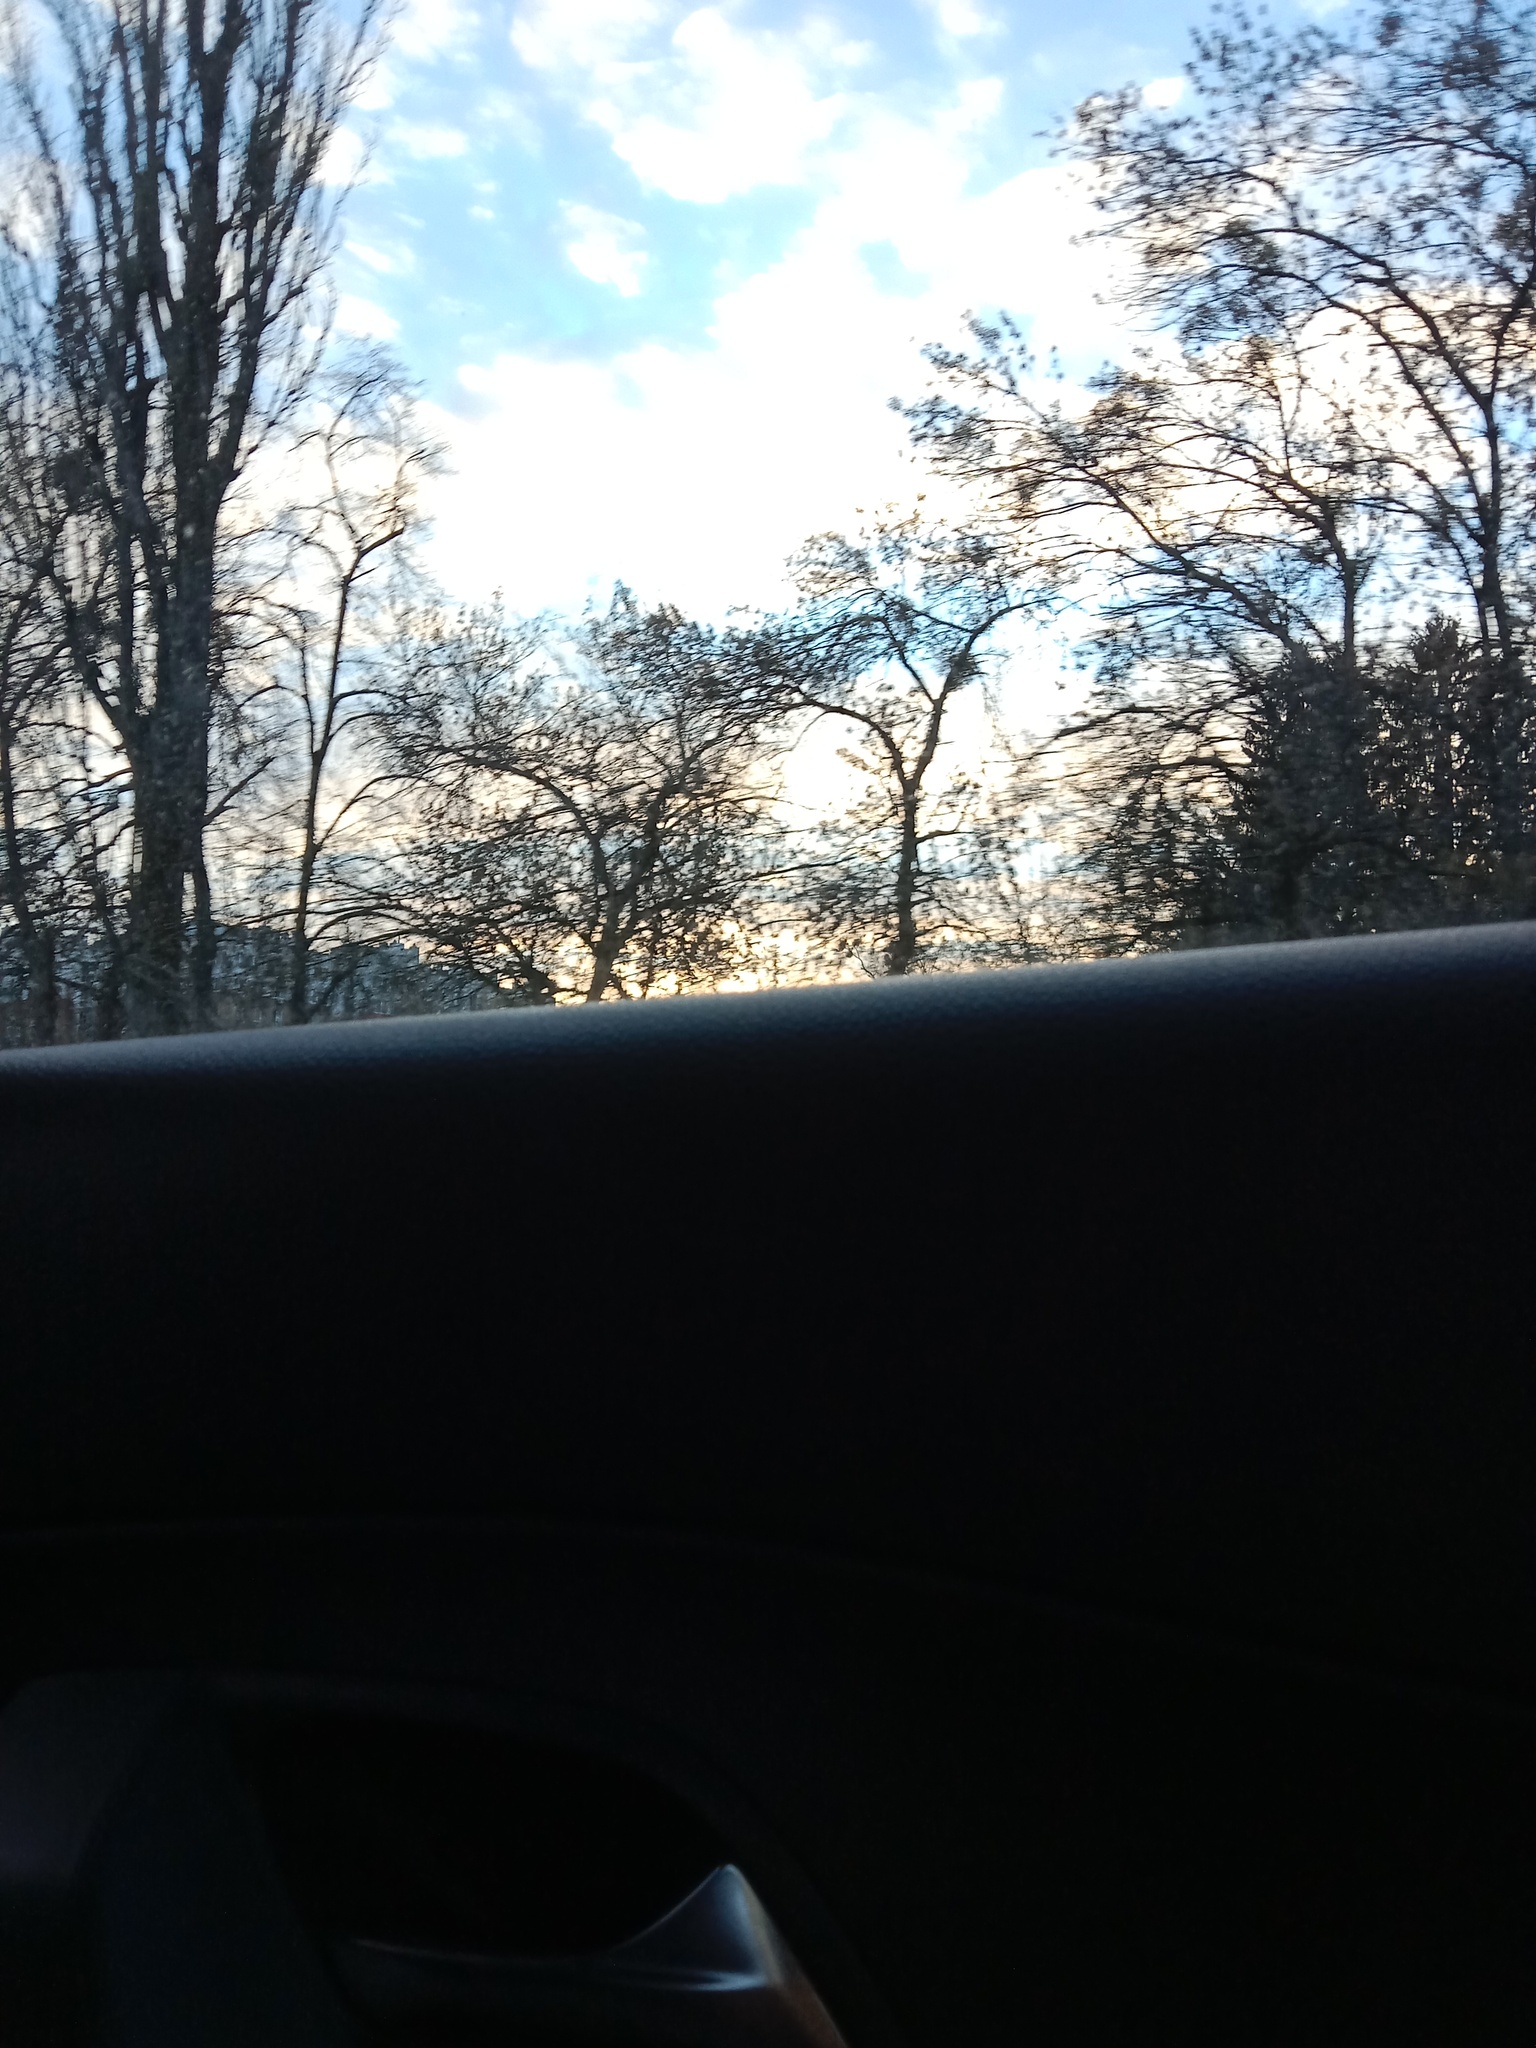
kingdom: Plantae
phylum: Tracheophyta
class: Magnoliopsida
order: Santalales
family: Viscaceae
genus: Viscum
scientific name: Viscum album
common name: Mistletoe
